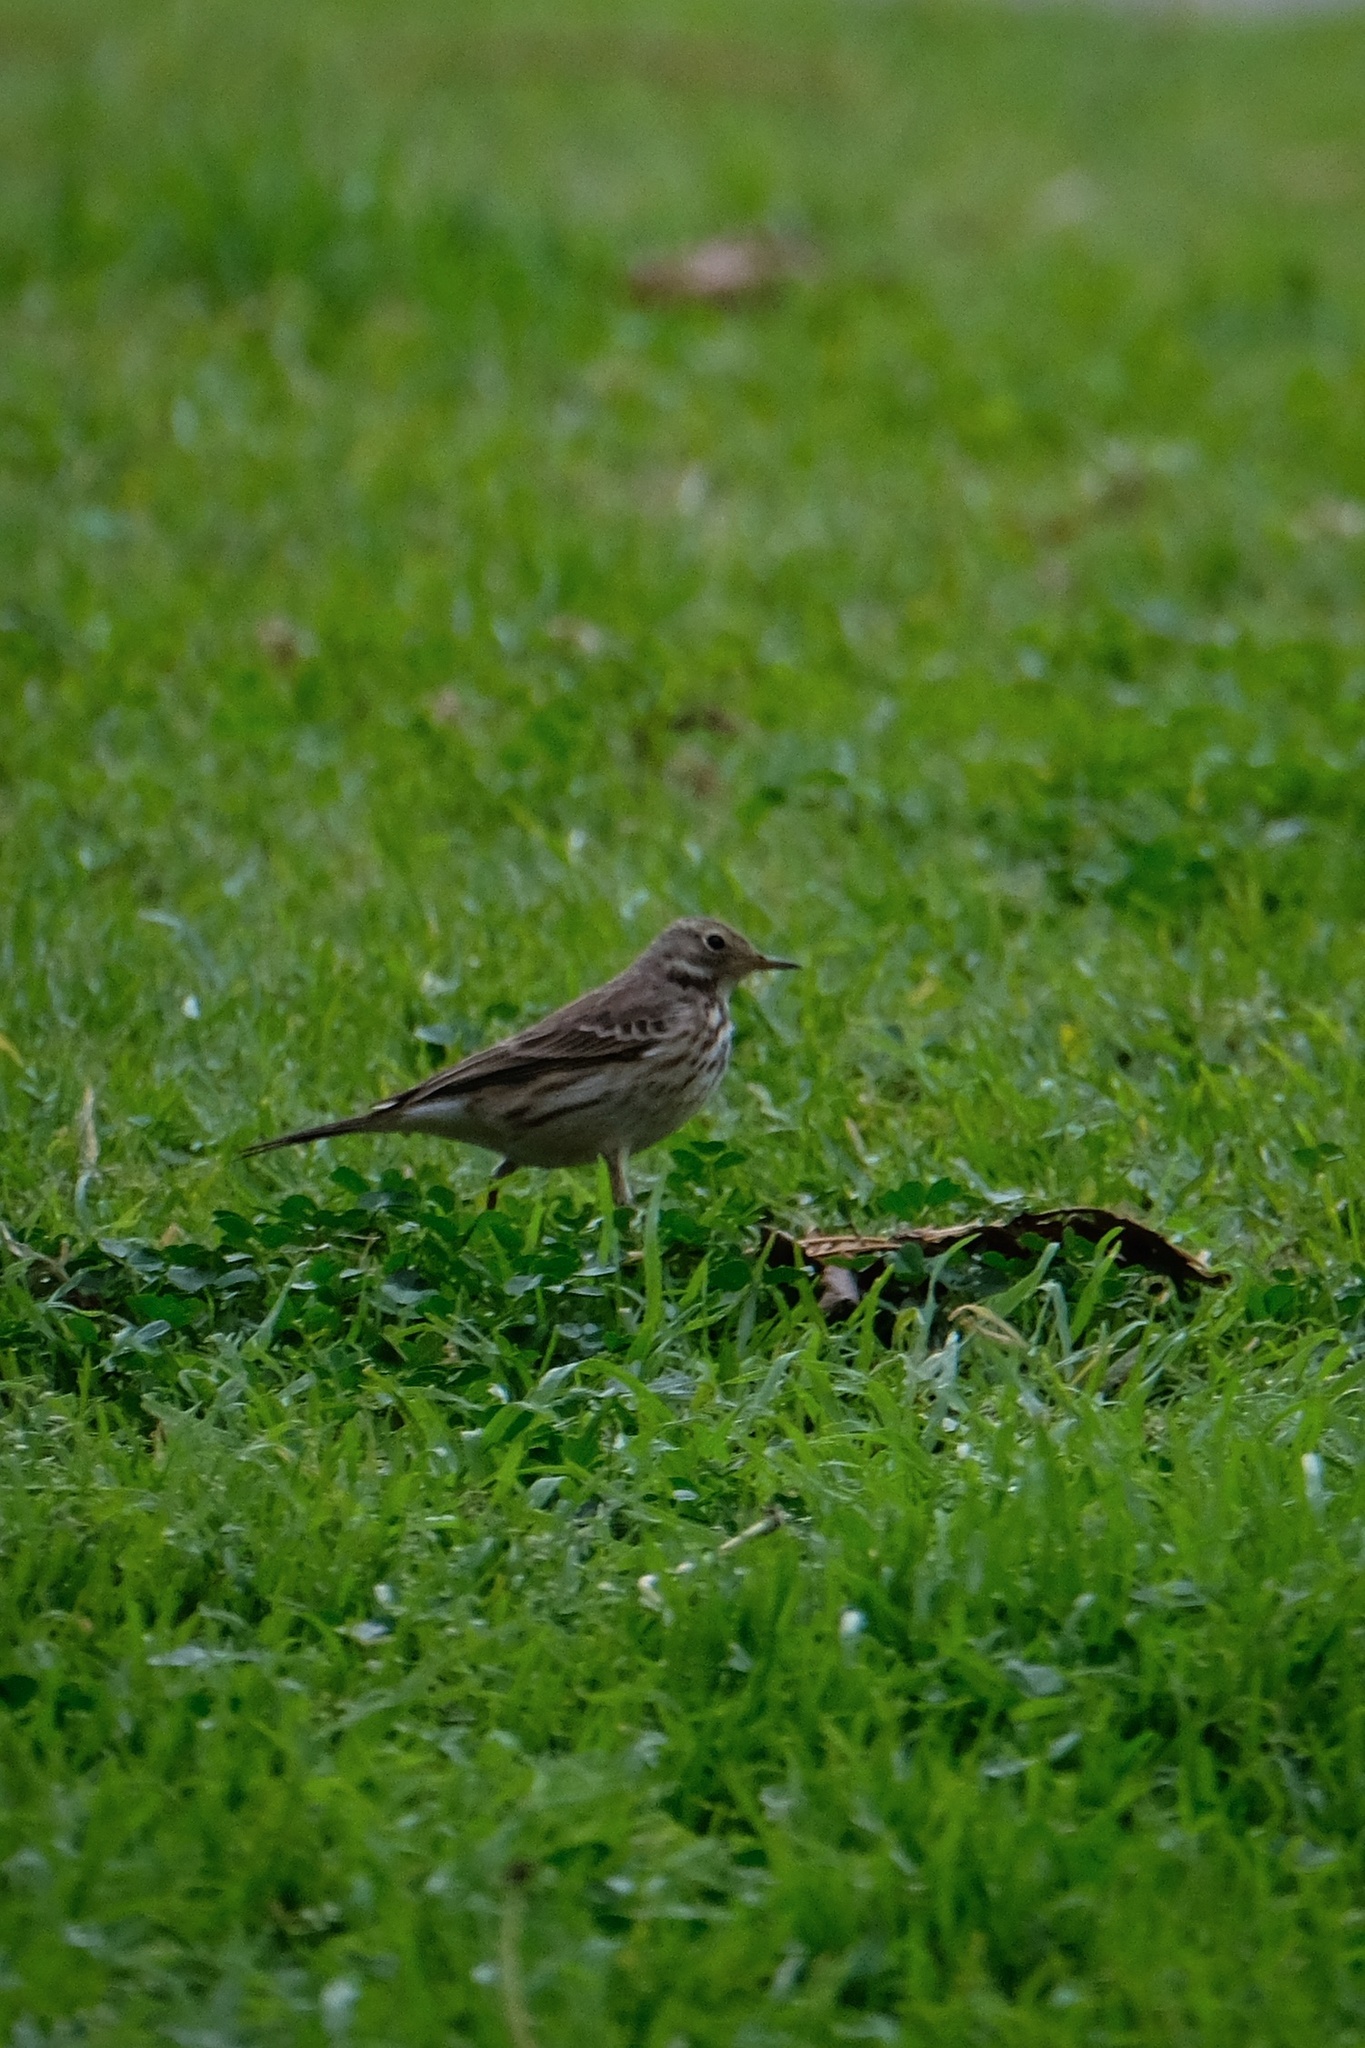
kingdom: Animalia
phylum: Chordata
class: Aves
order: Passeriformes
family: Motacillidae
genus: Anthus
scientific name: Anthus rubescens
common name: Buff-bellied pipit
